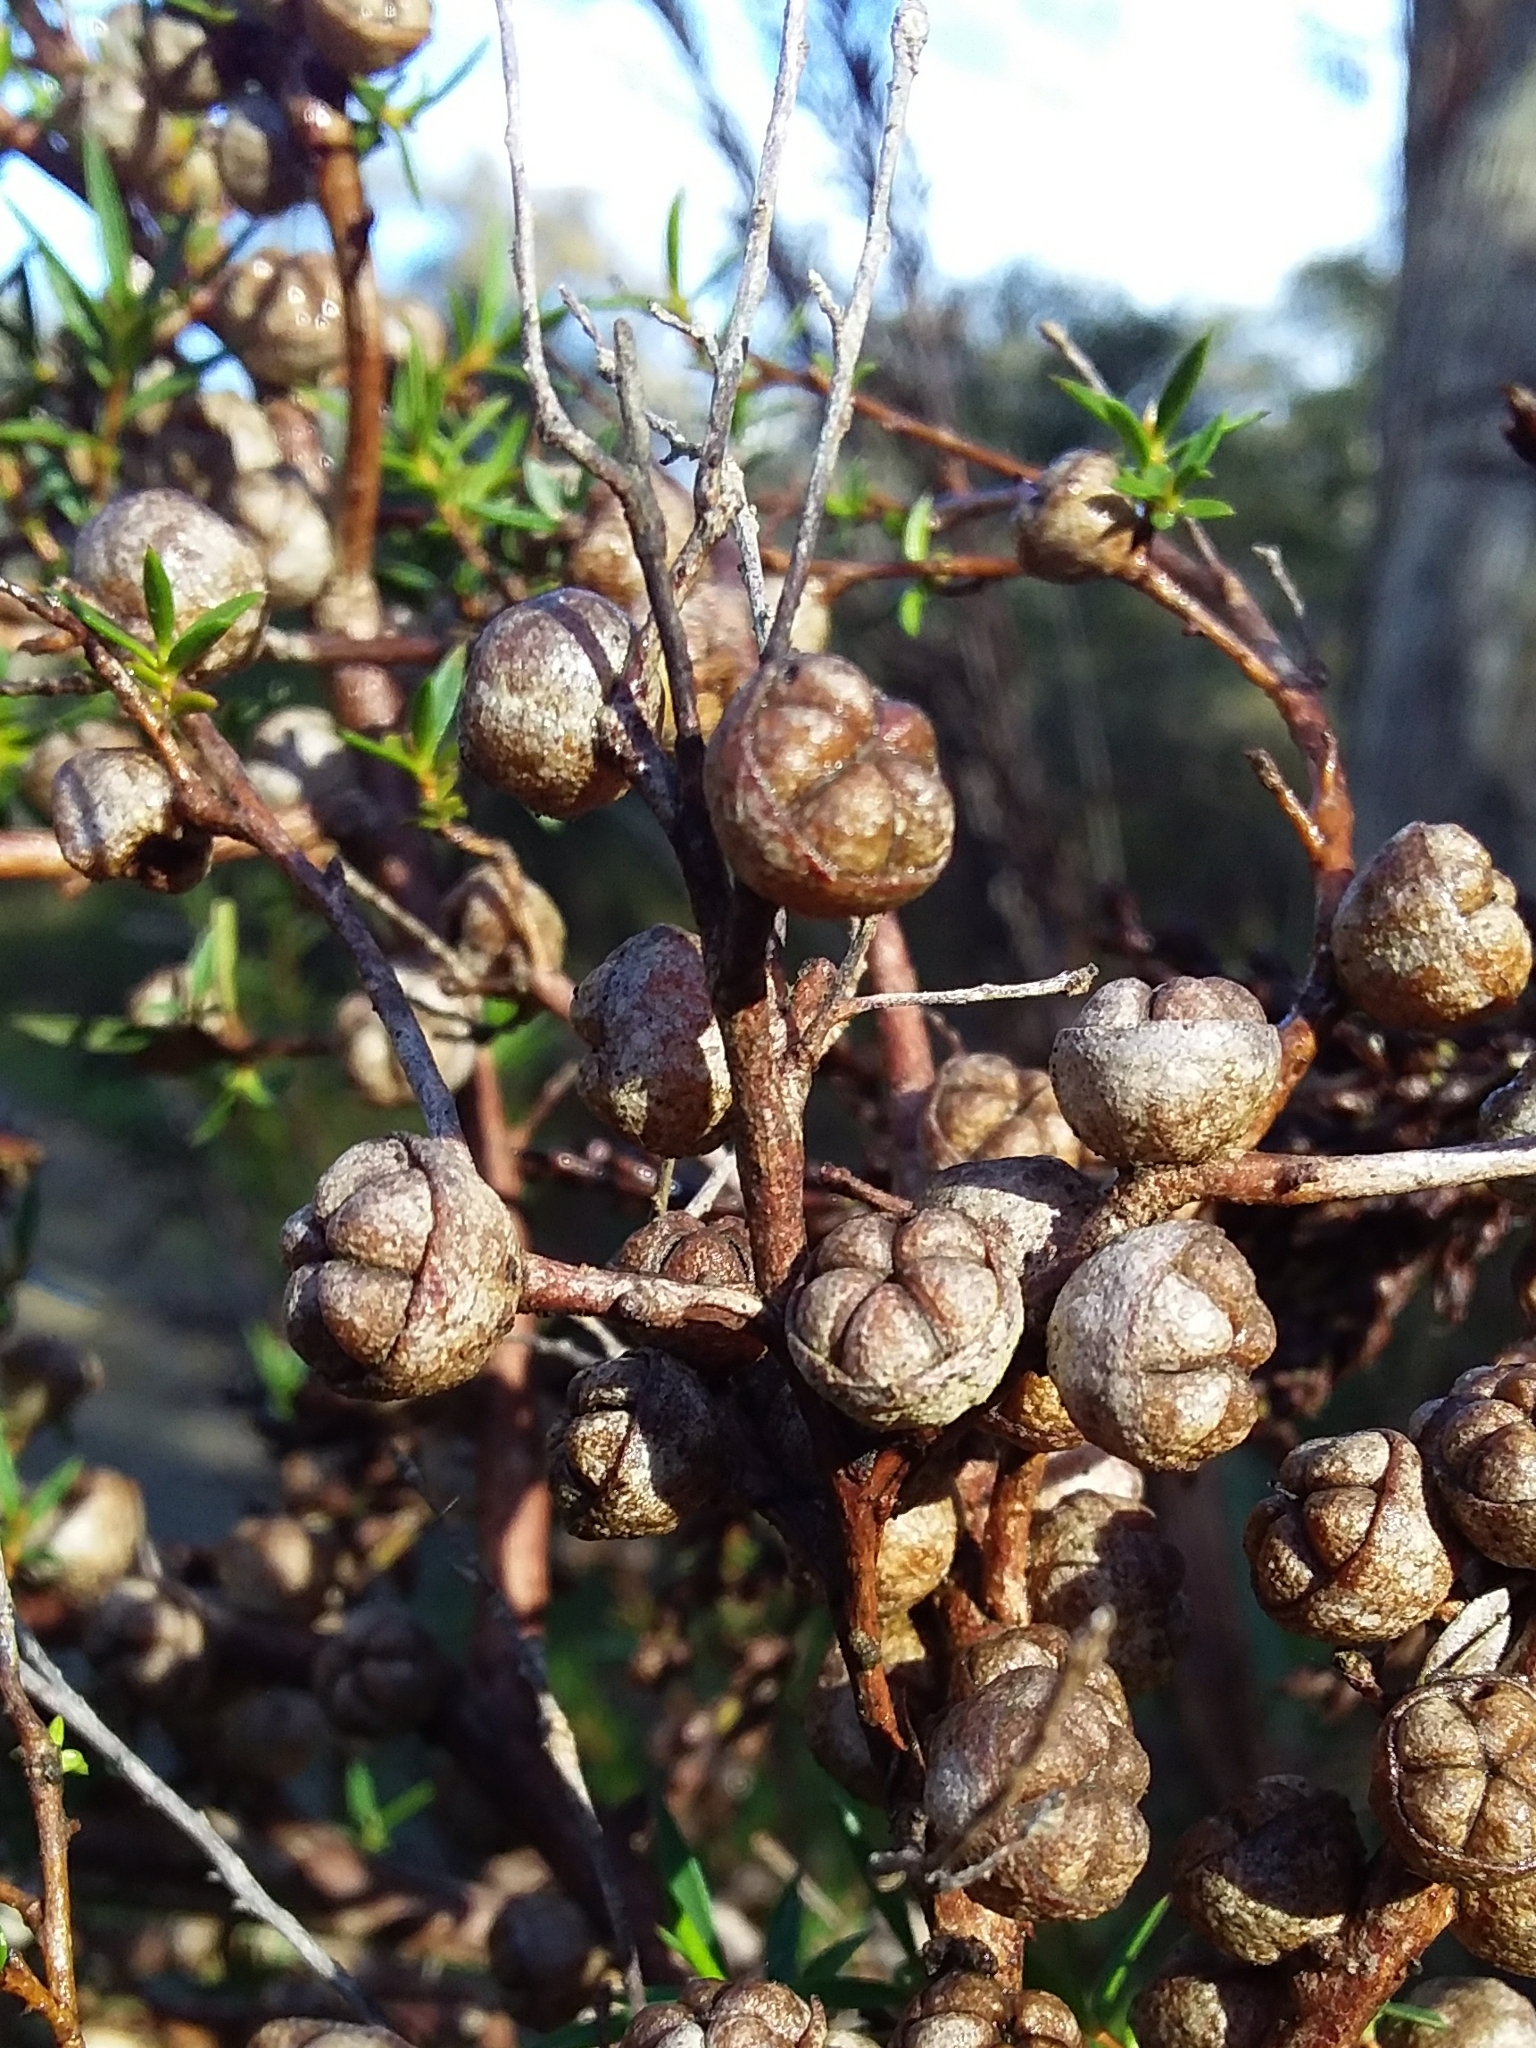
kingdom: Plantae
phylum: Tracheophyta
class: Magnoliopsida
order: Myrtales
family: Myrtaceae
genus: Leptospermum
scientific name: Leptospermum continentale
